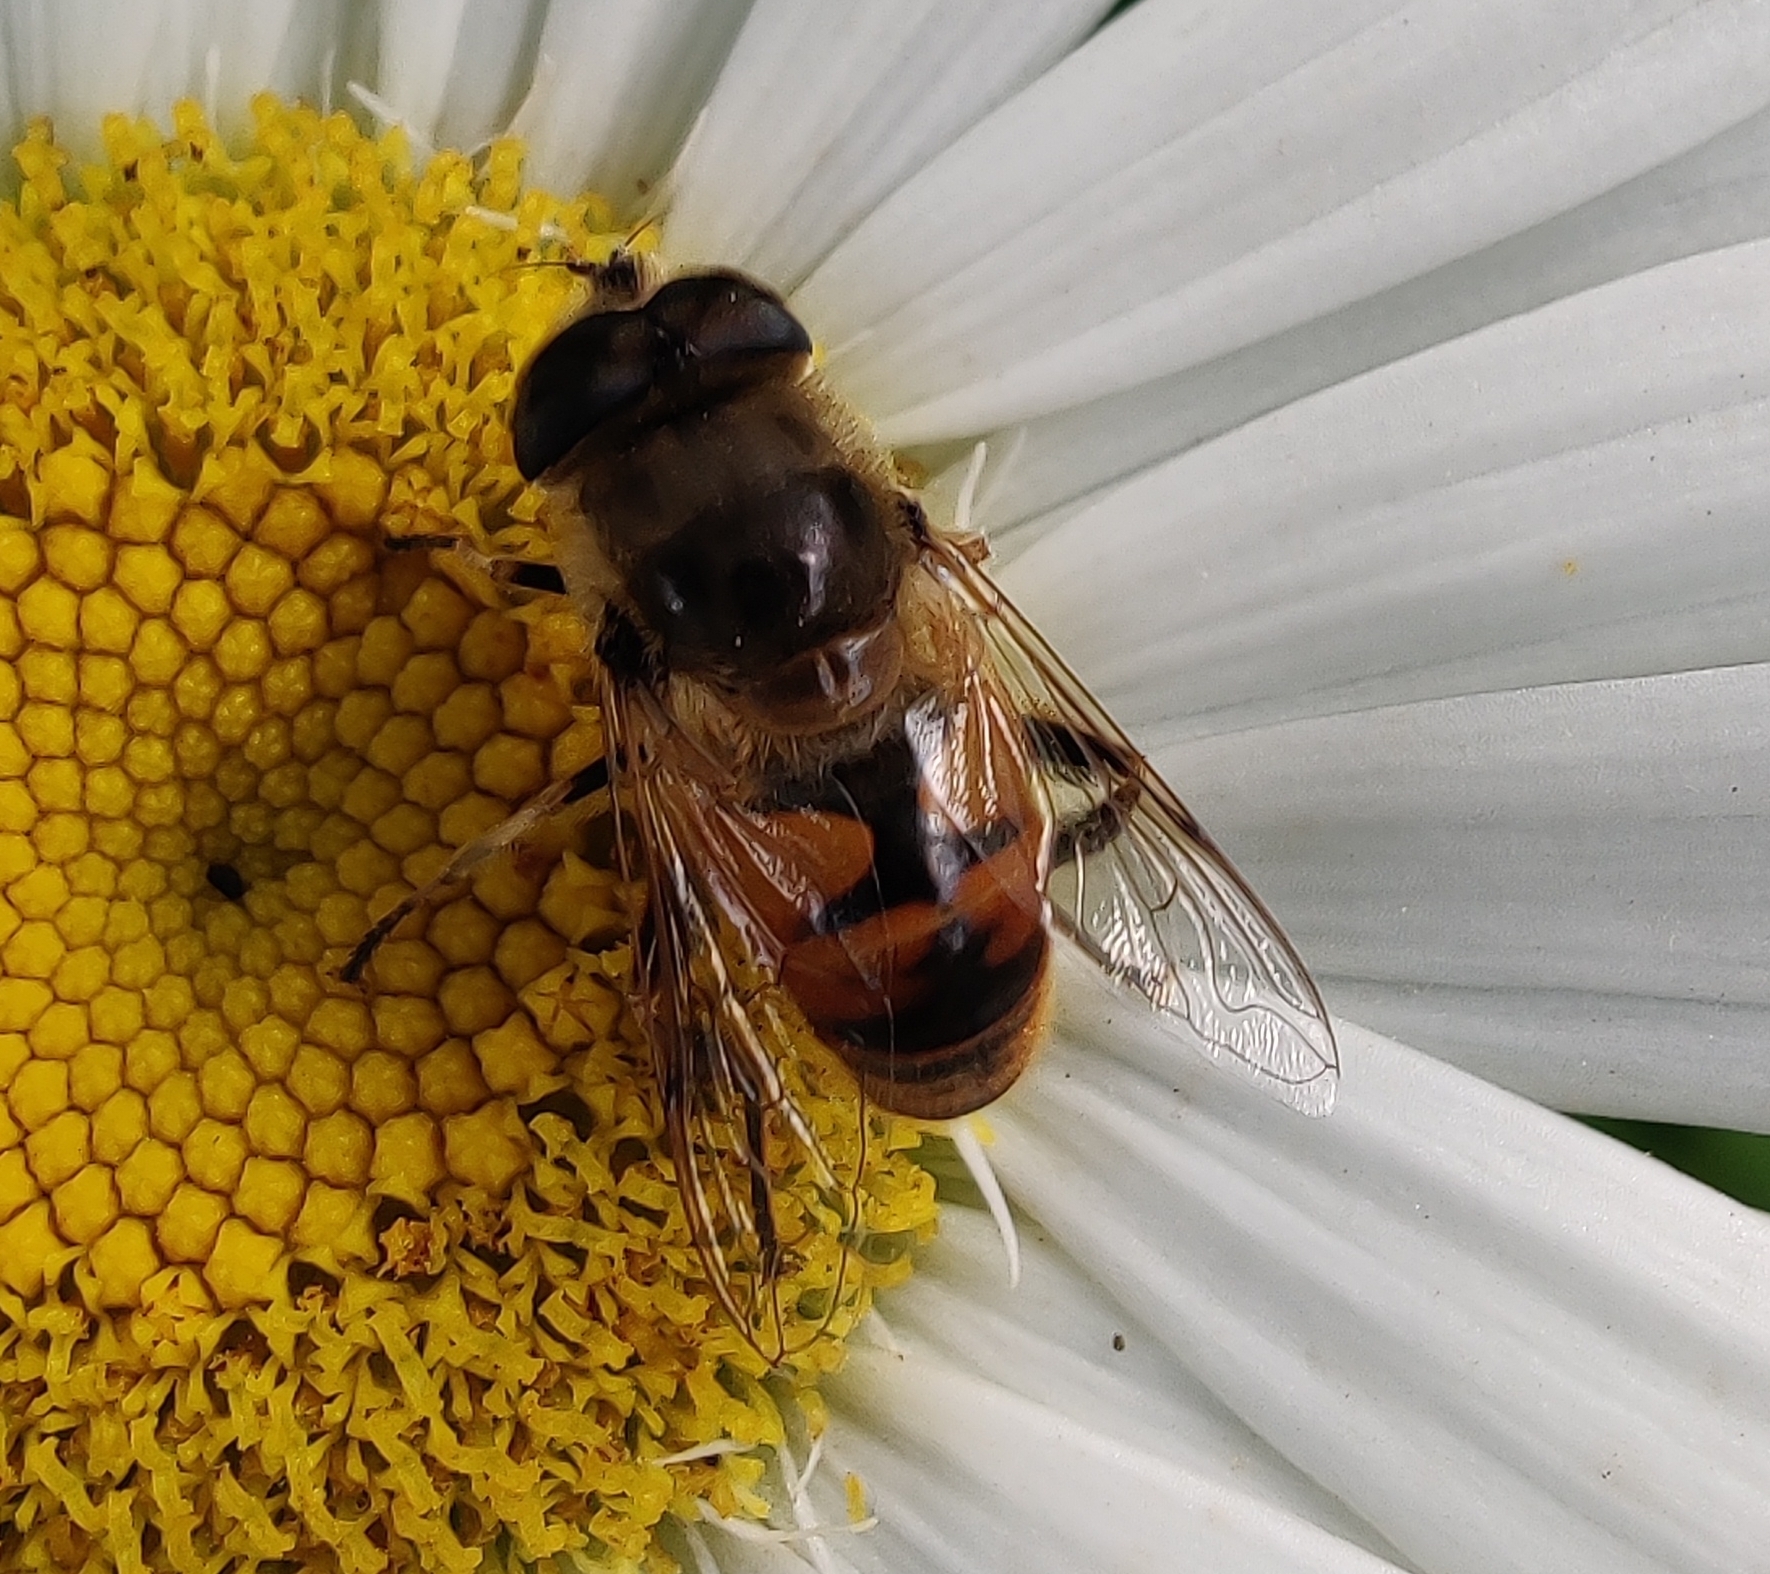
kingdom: Animalia
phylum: Arthropoda
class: Insecta
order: Diptera
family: Syrphidae
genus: Eristalis
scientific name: Eristalis tenax
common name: Drone fly
